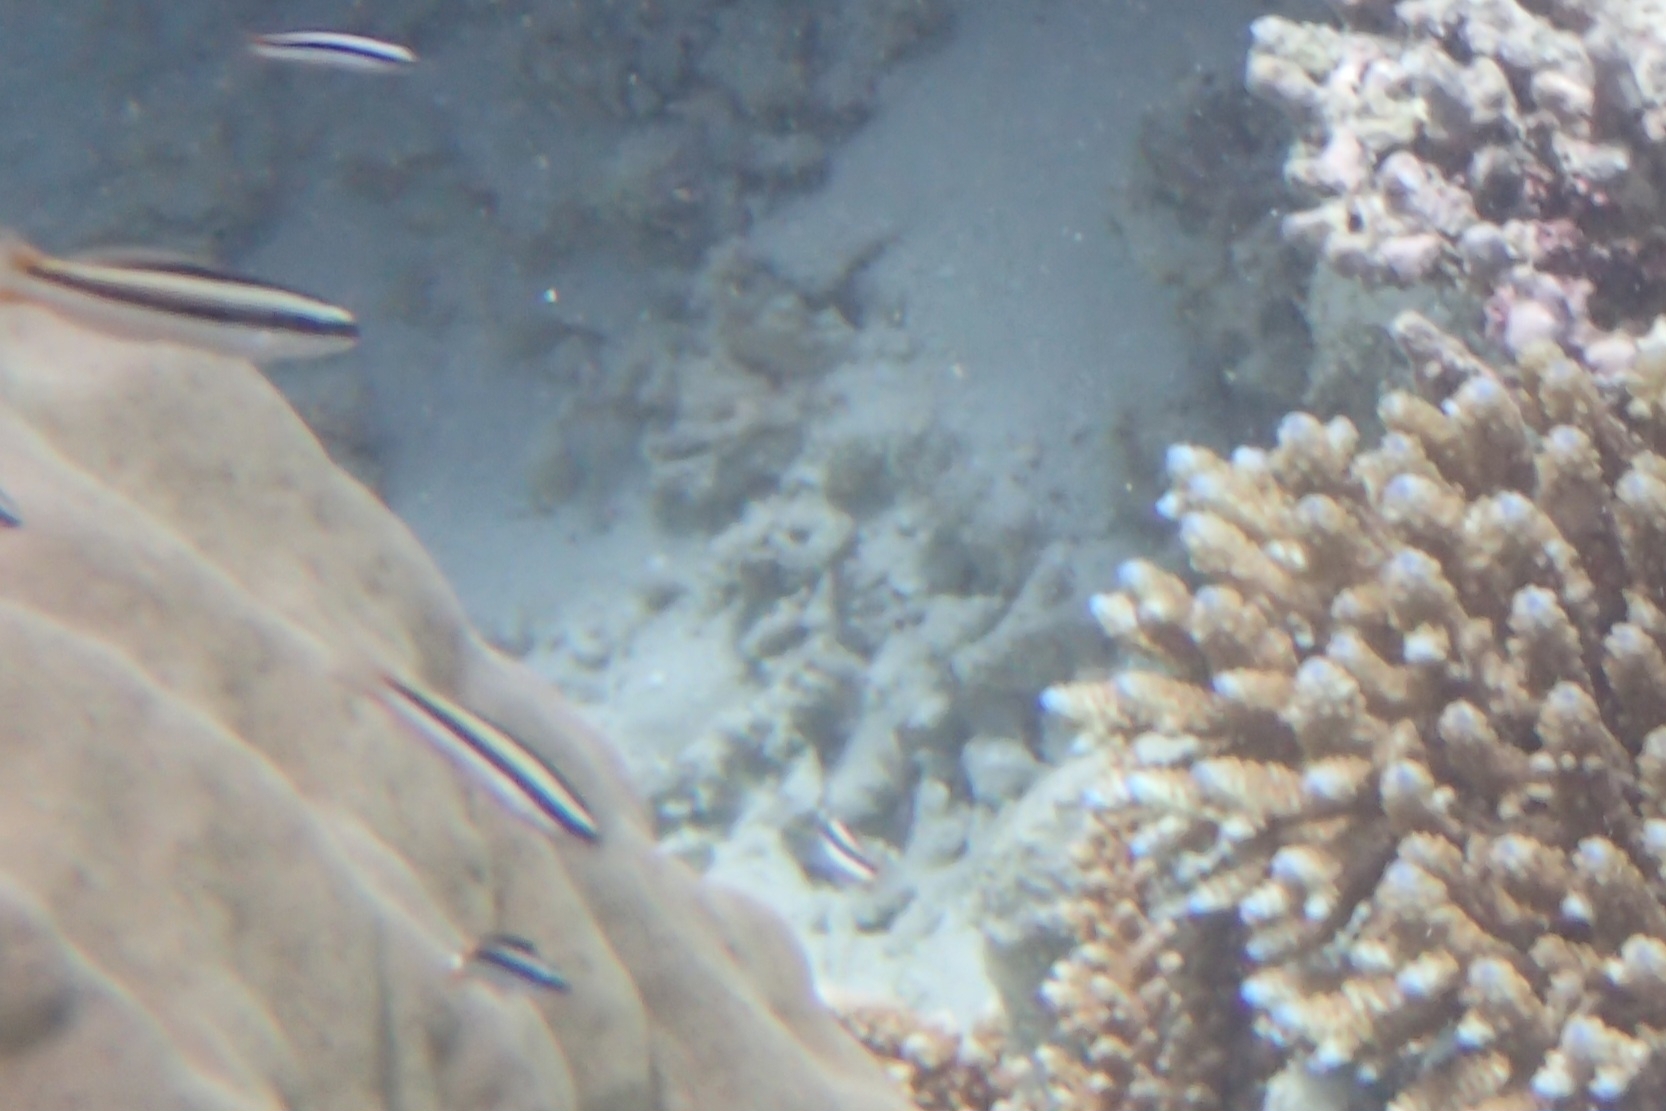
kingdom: Animalia
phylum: Chordata
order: Perciformes
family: Labridae
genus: Thalassoma
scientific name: Thalassoma amblycephalum
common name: Bluehead wrasse
